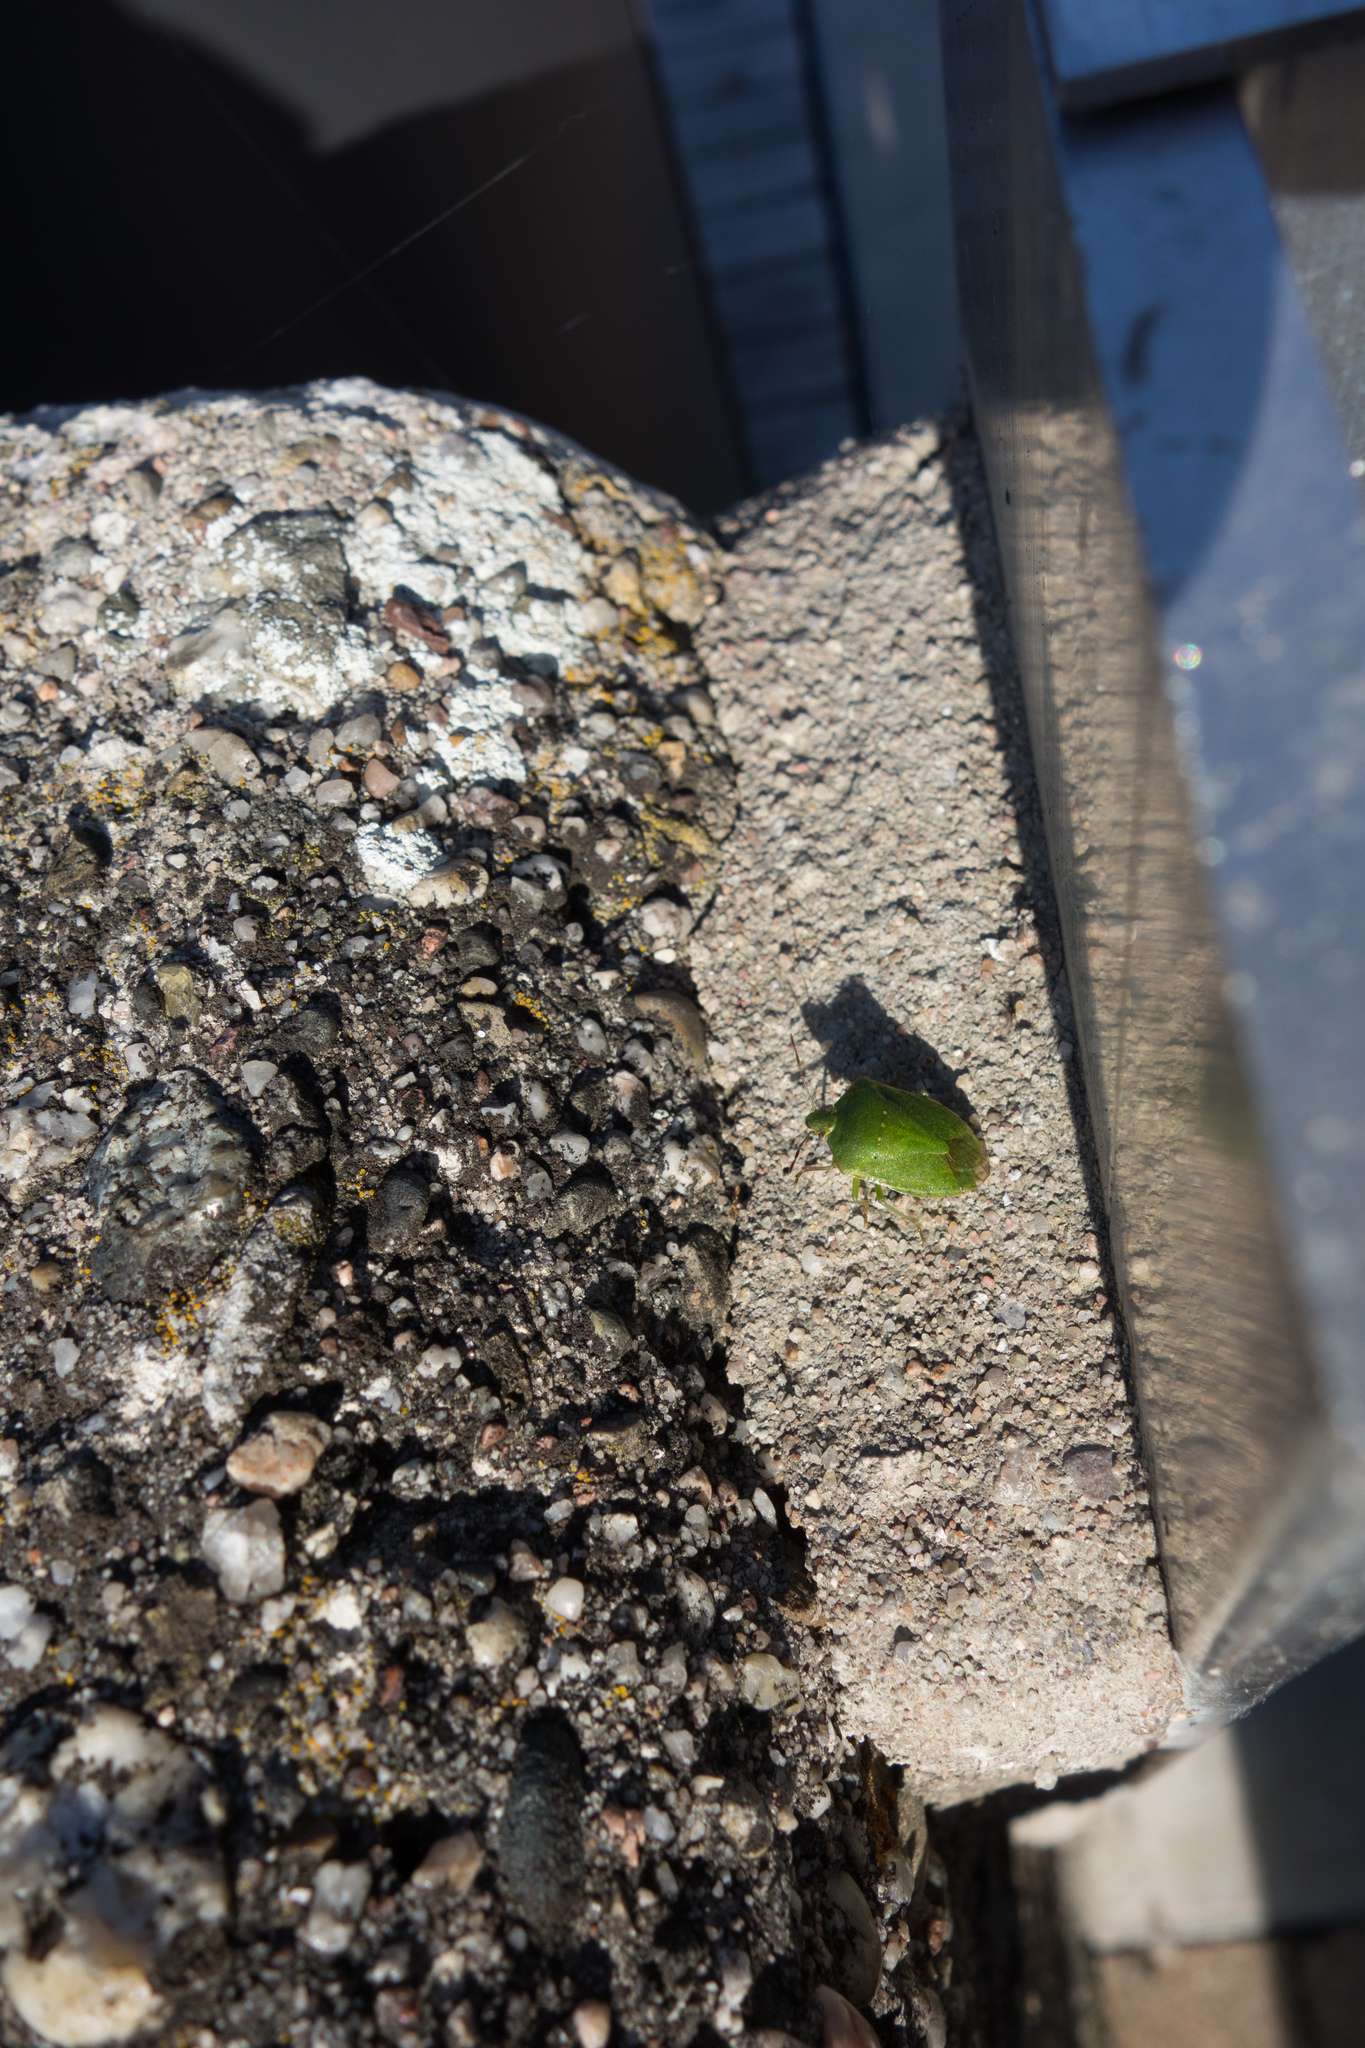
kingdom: Animalia
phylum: Arthropoda
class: Insecta
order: Hemiptera
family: Pentatomidae
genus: Nezara
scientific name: Nezara viridula
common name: Southern green stink bug
